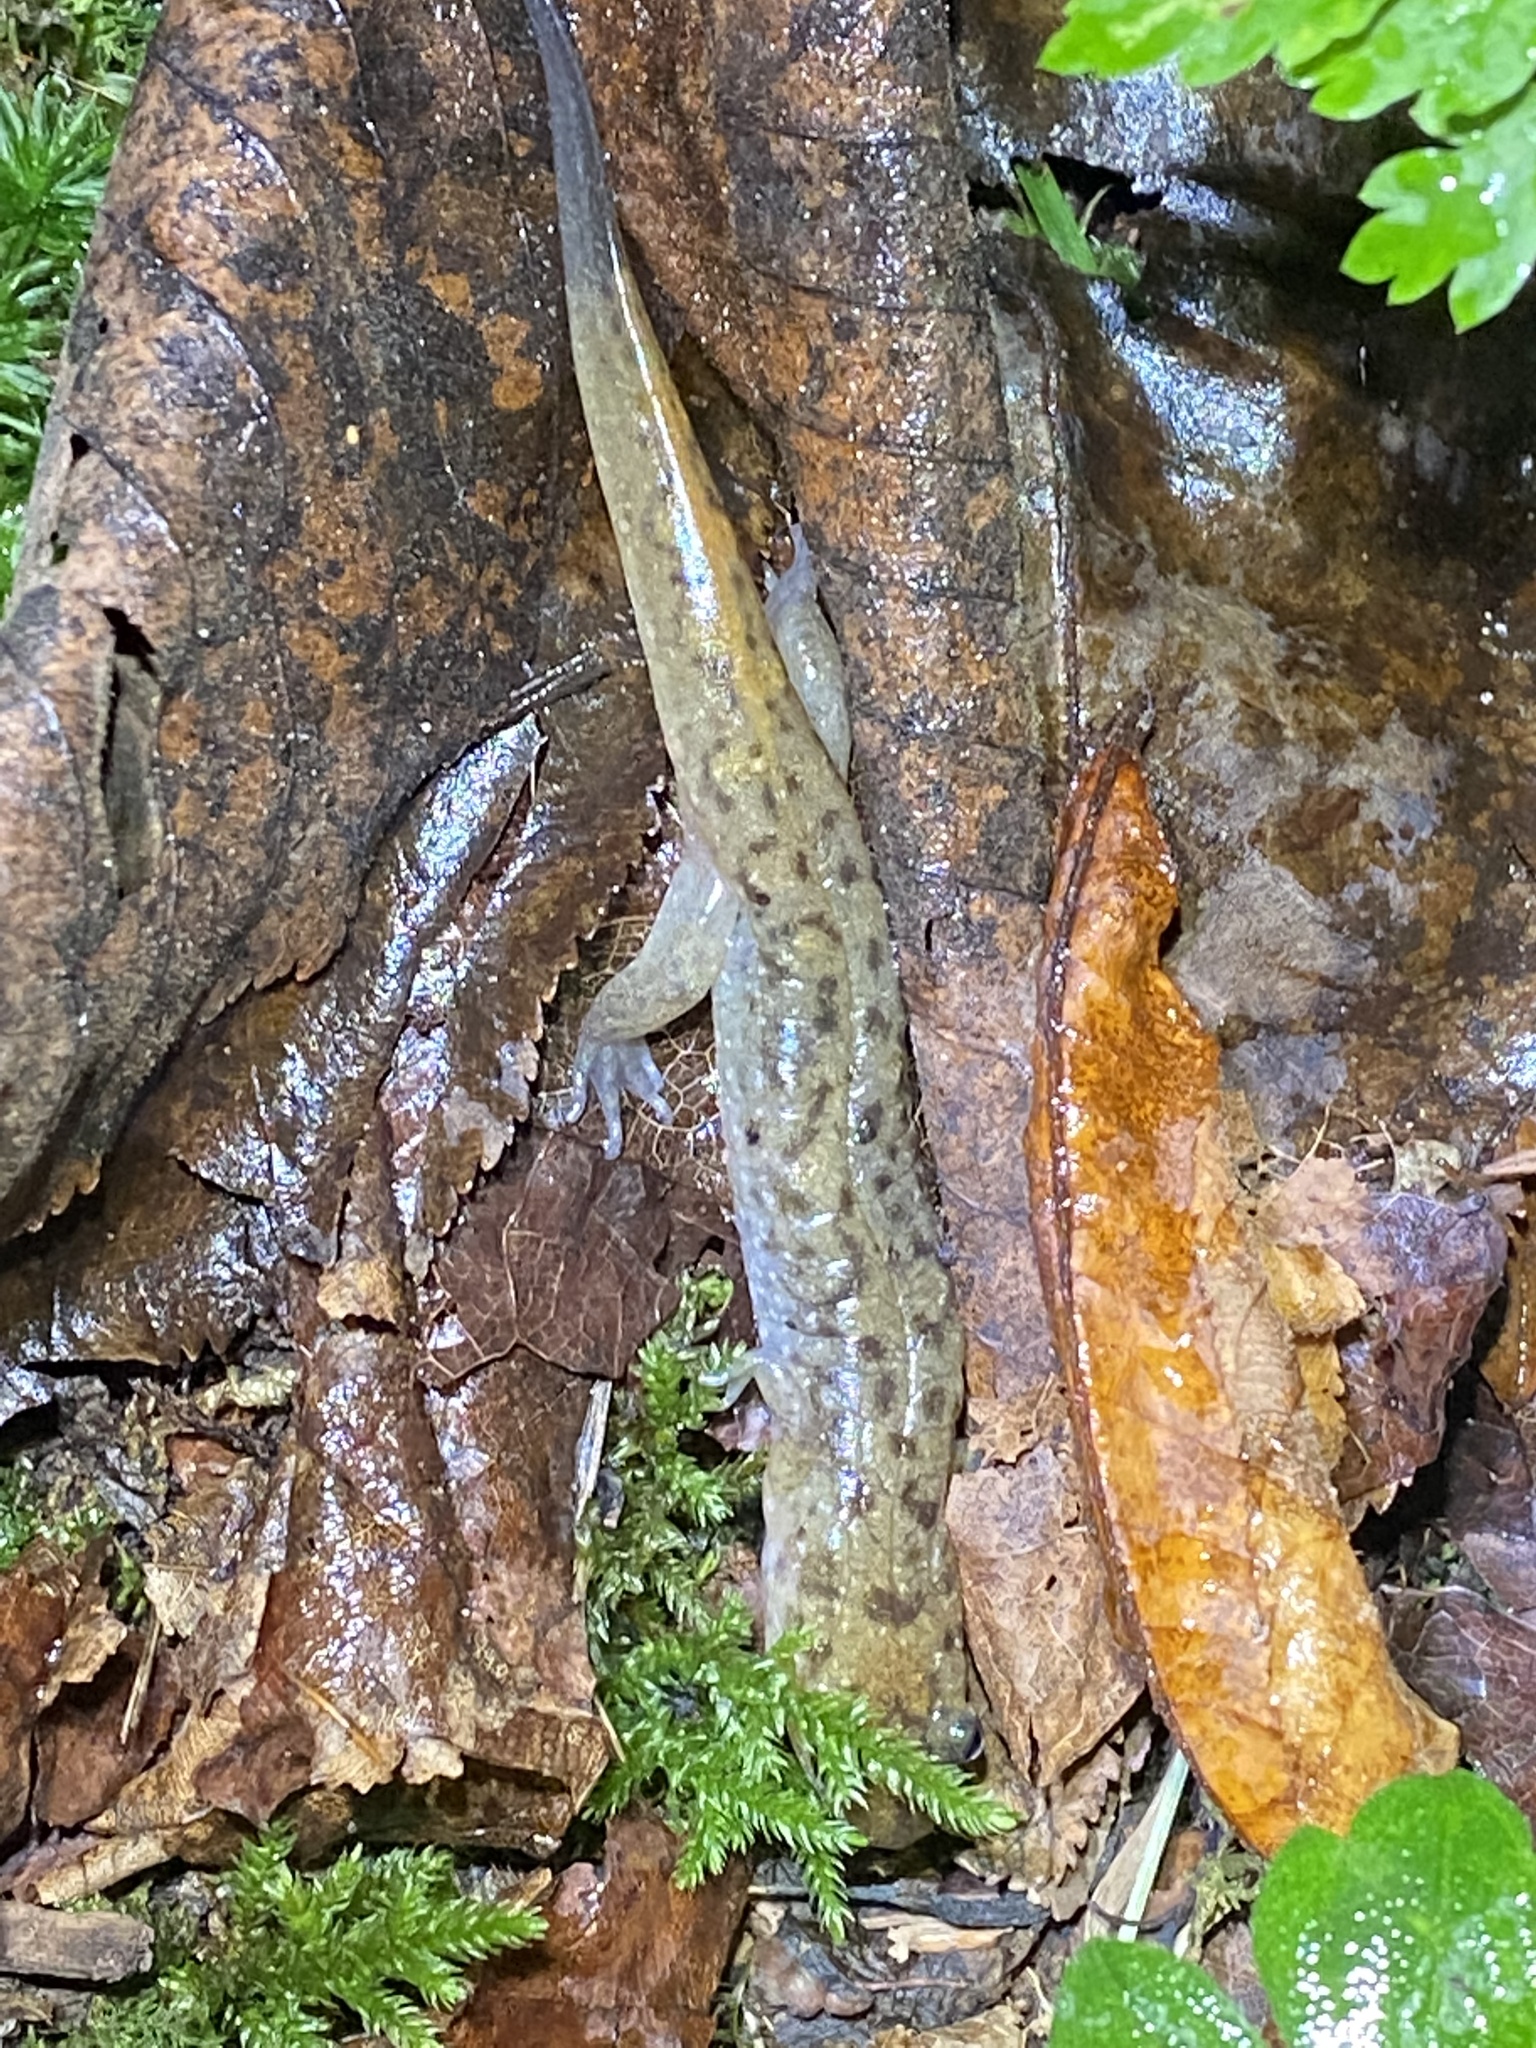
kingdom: Animalia
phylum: Chordata
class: Amphibia
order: Caudata
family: Plethodontidae
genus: Desmognathus
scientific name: Desmognathus monticola
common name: Seal salamander
